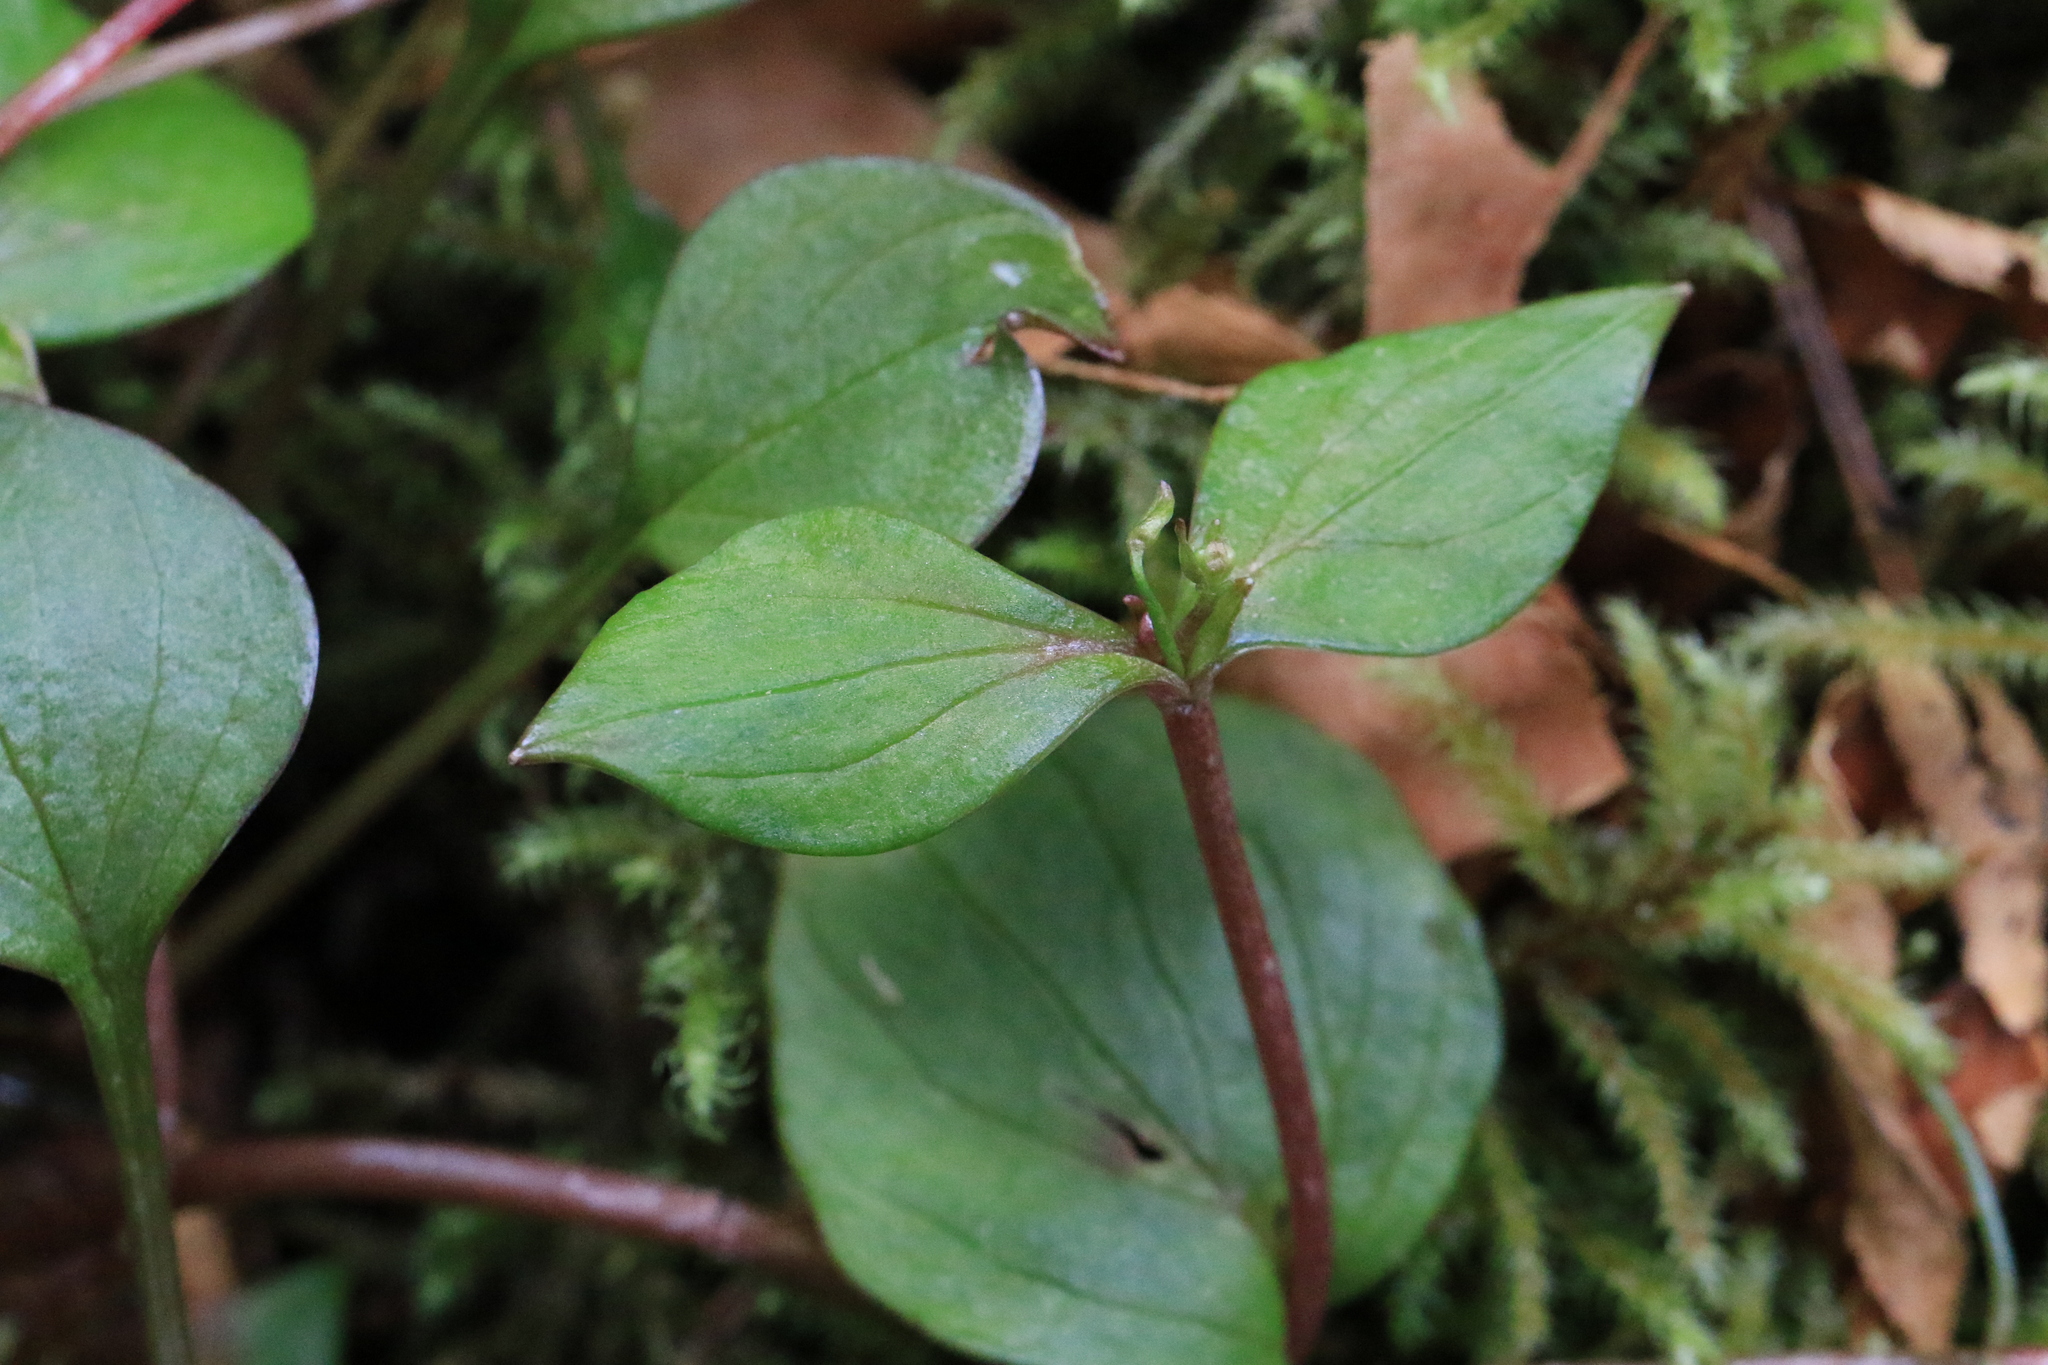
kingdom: Plantae
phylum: Tracheophyta
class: Magnoliopsida
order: Caryophyllales
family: Montiaceae
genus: Claytonia
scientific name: Claytonia sibirica
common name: Pink purslane
